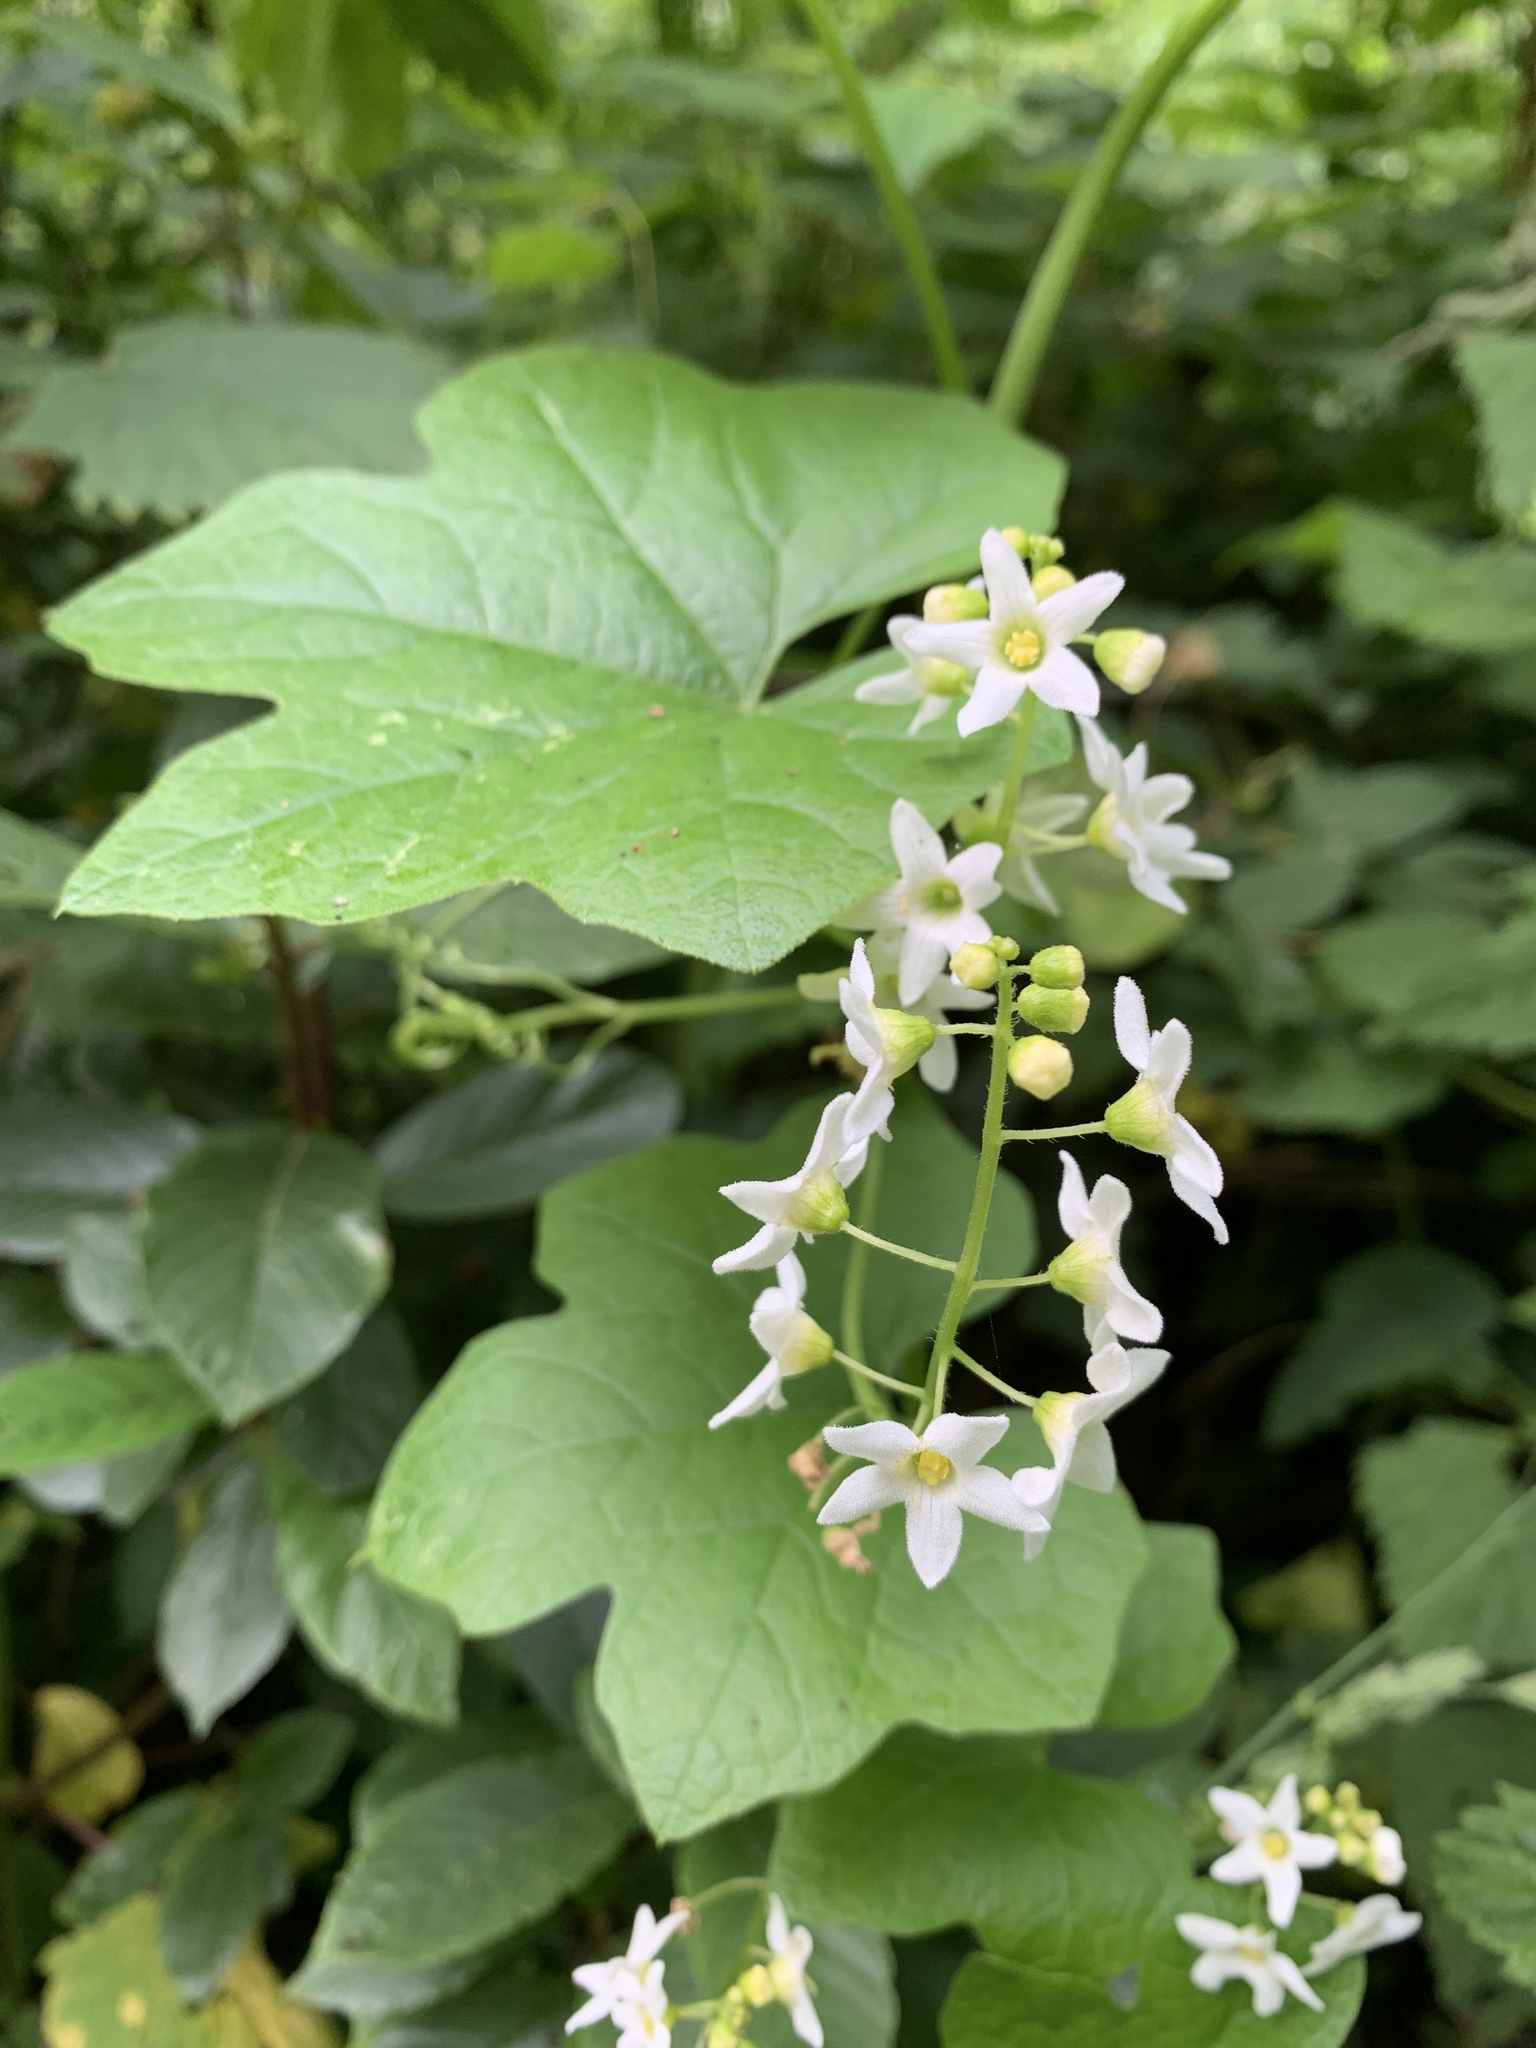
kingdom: Plantae
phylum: Tracheophyta
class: Magnoliopsida
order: Cucurbitales
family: Cucurbitaceae
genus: Marah
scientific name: Marah oregana
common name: Coastal manroot
